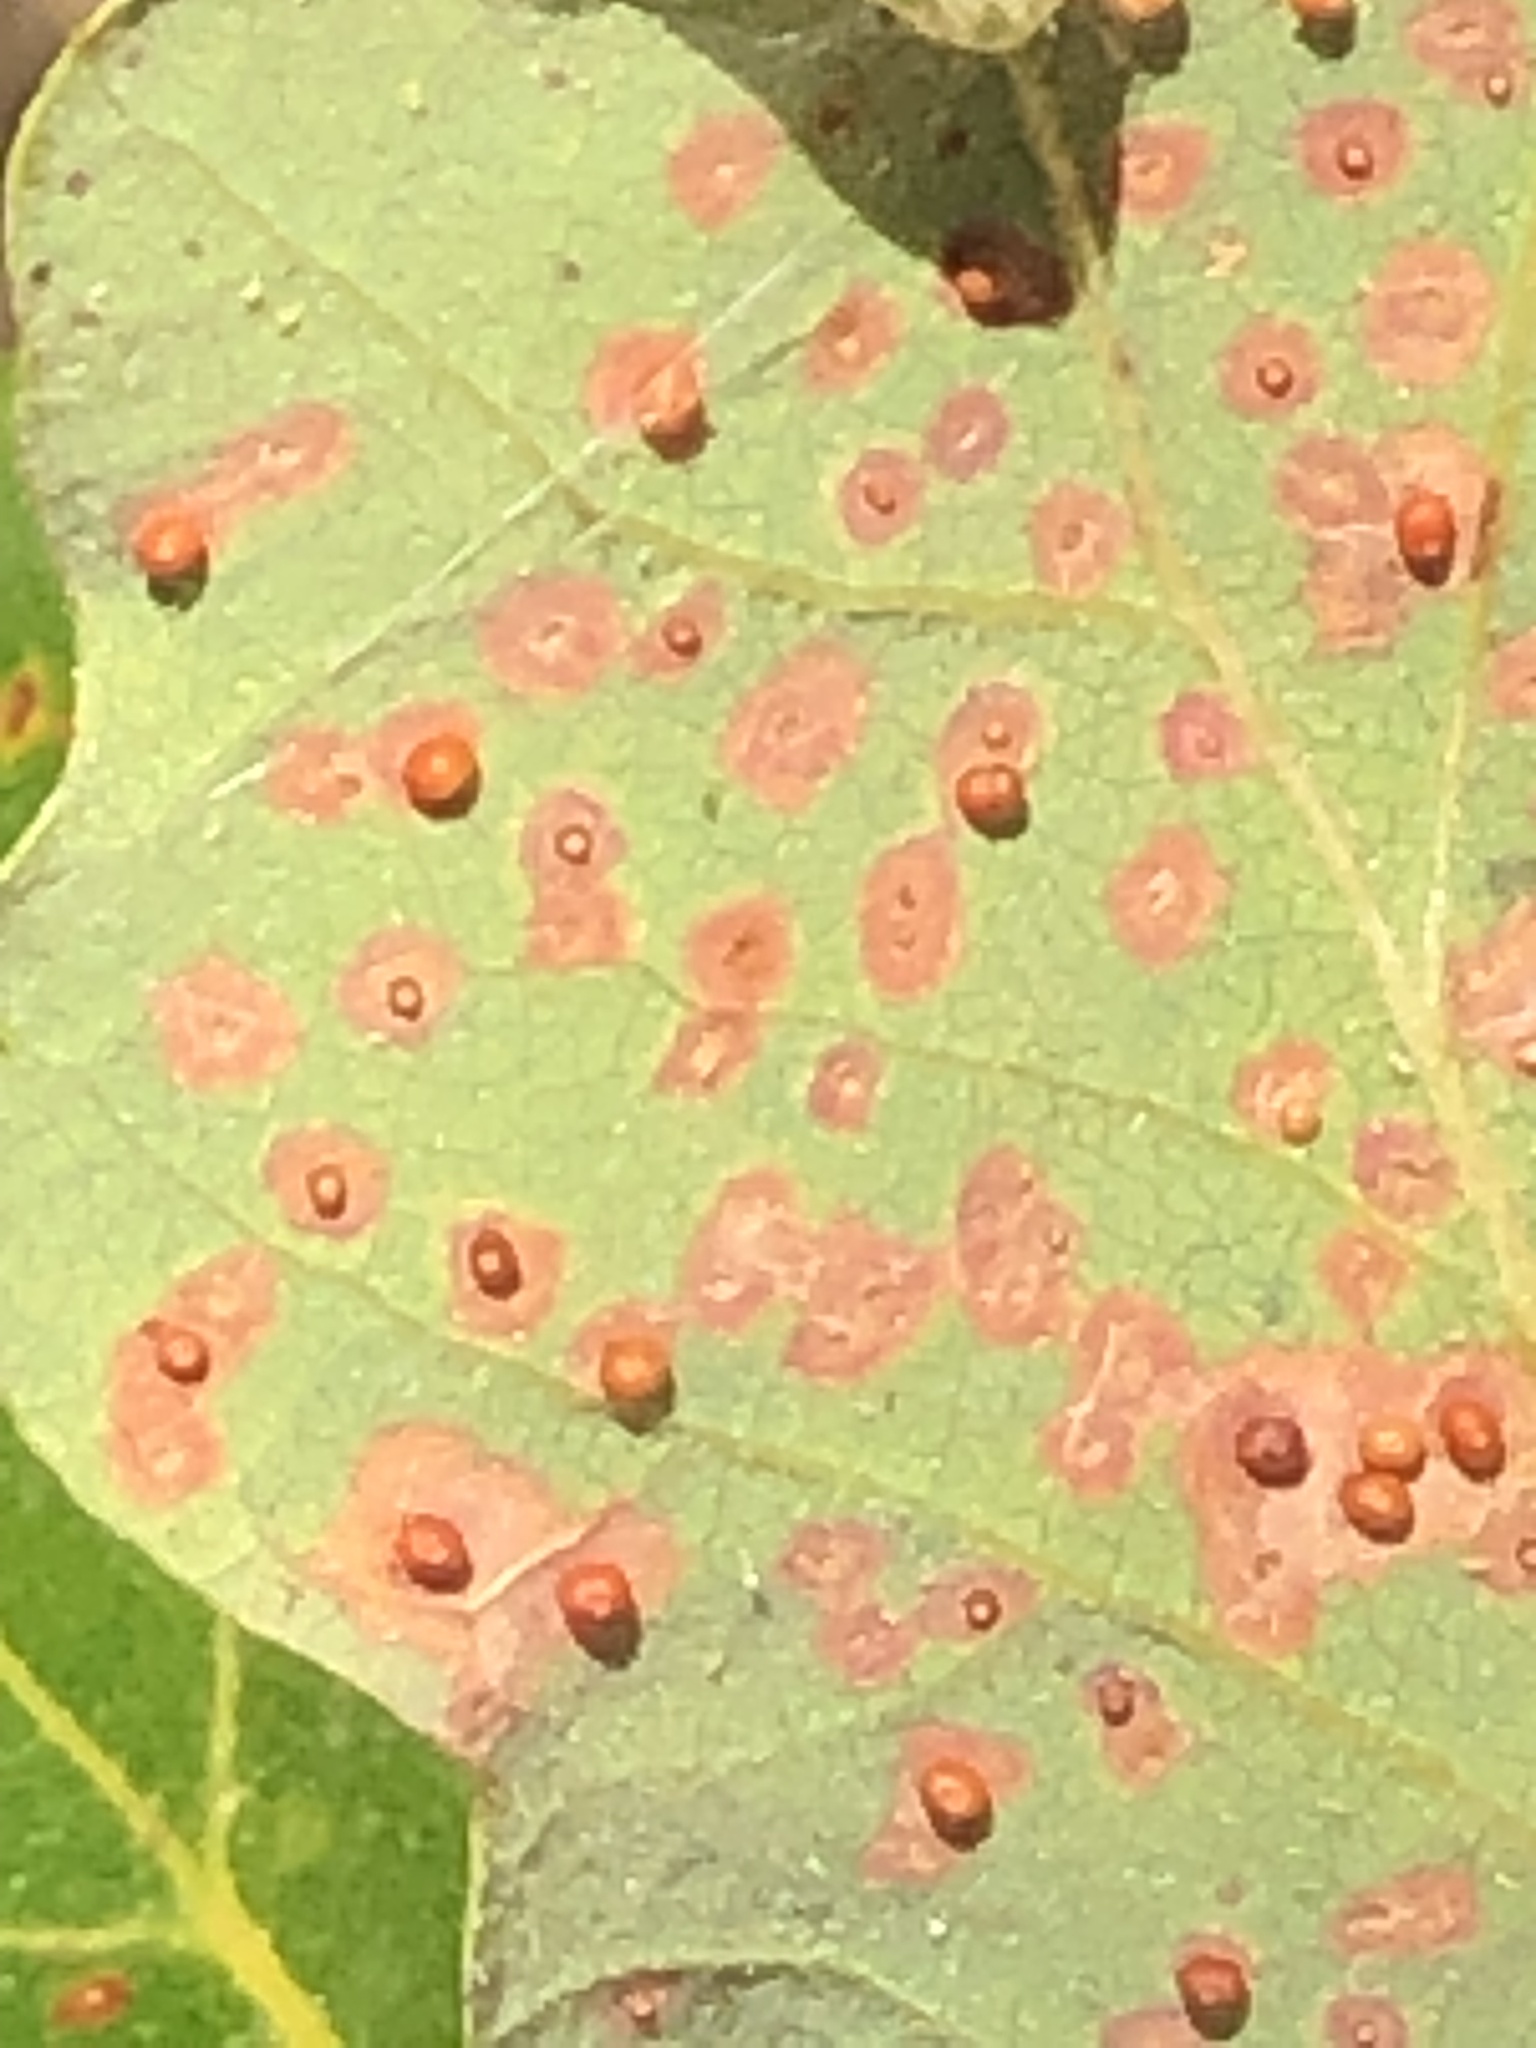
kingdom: Animalia
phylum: Arthropoda
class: Insecta
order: Hymenoptera
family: Cynipidae
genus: Neuroterus
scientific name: Neuroterus saltarius
